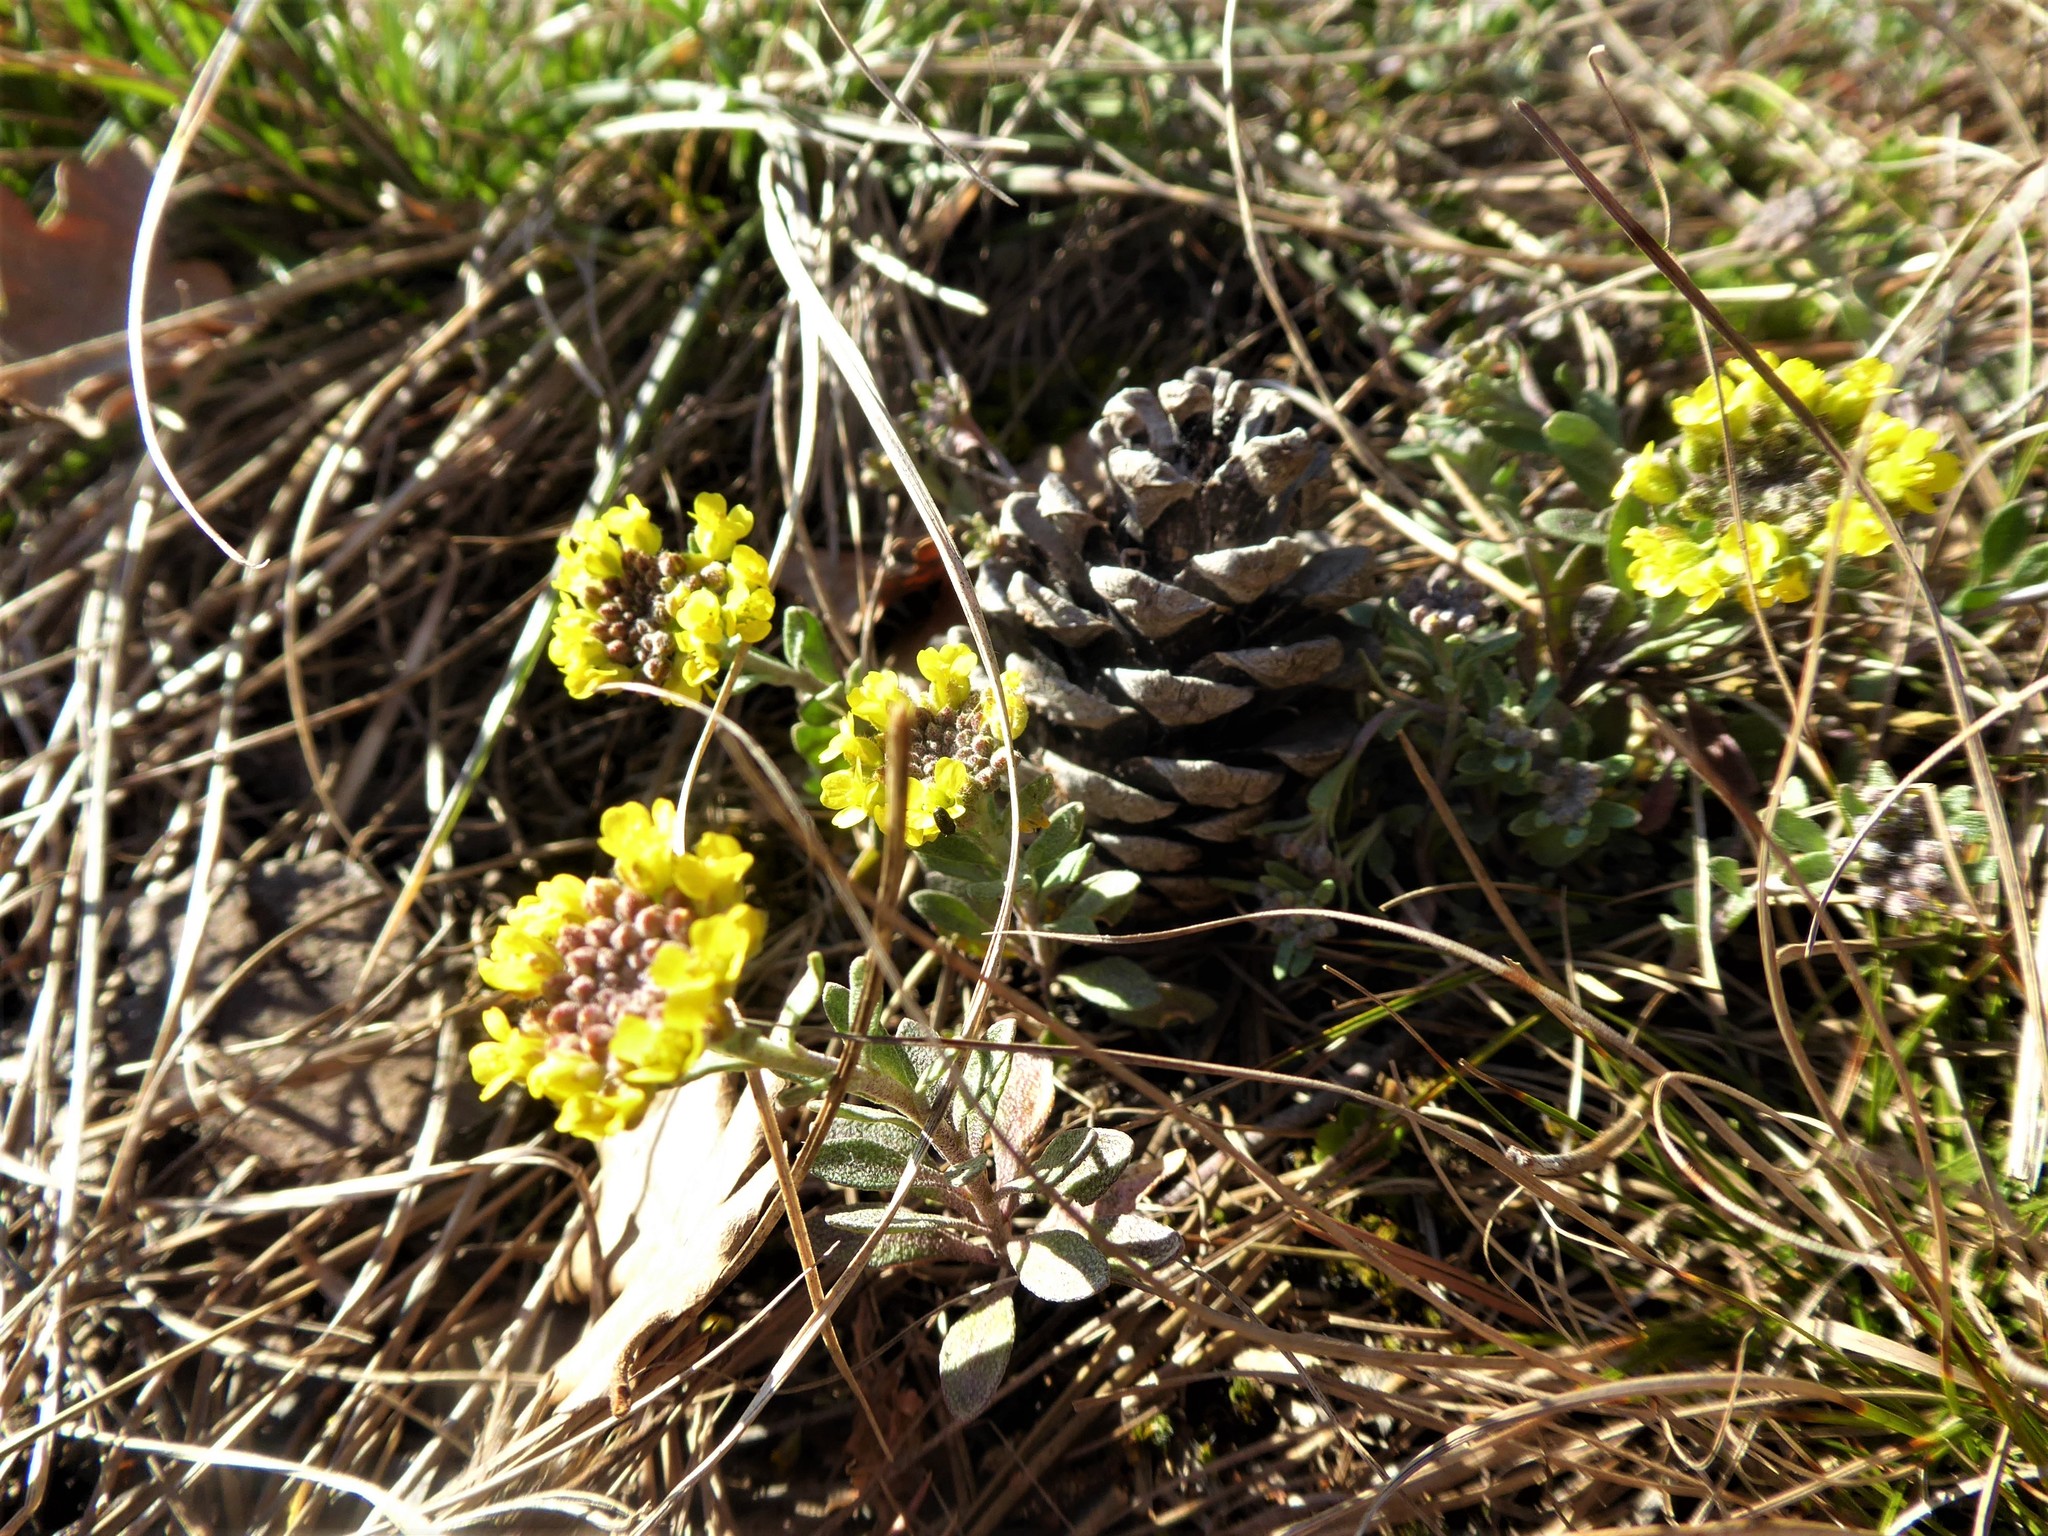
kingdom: Plantae
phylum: Tracheophyta
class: Magnoliopsida
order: Brassicales
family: Brassicaceae
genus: Alyssum
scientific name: Alyssum gmelinii
